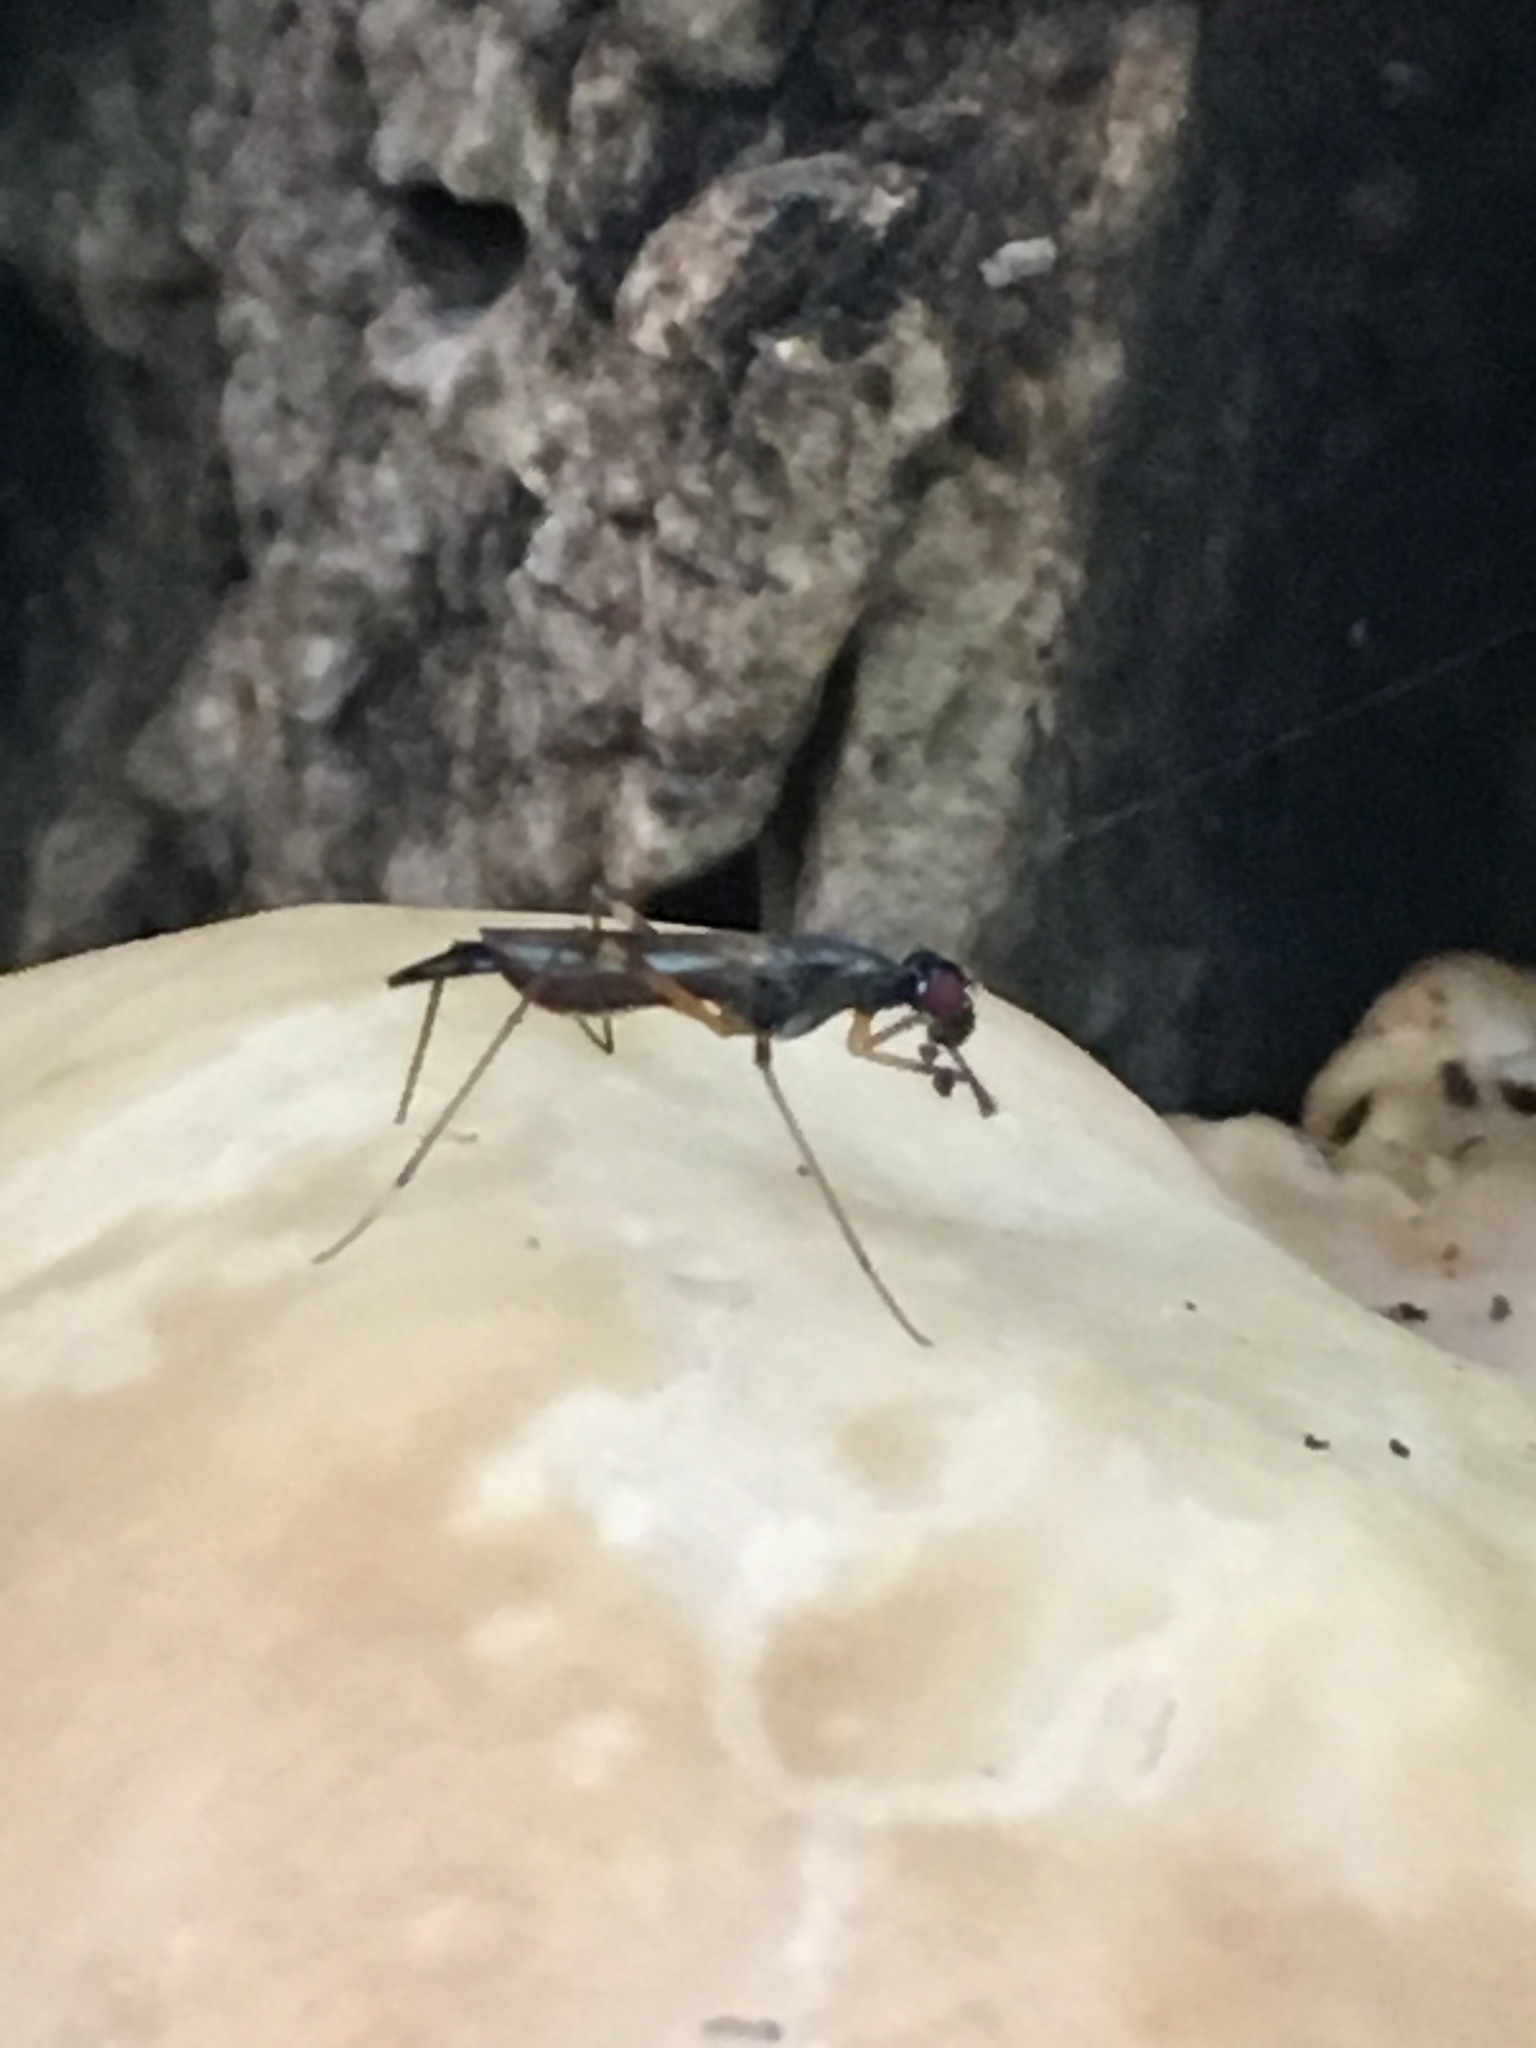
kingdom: Animalia
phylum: Arthropoda
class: Insecta
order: Diptera
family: Micropezidae
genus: Rainieria
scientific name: Rainieria antennaepes
